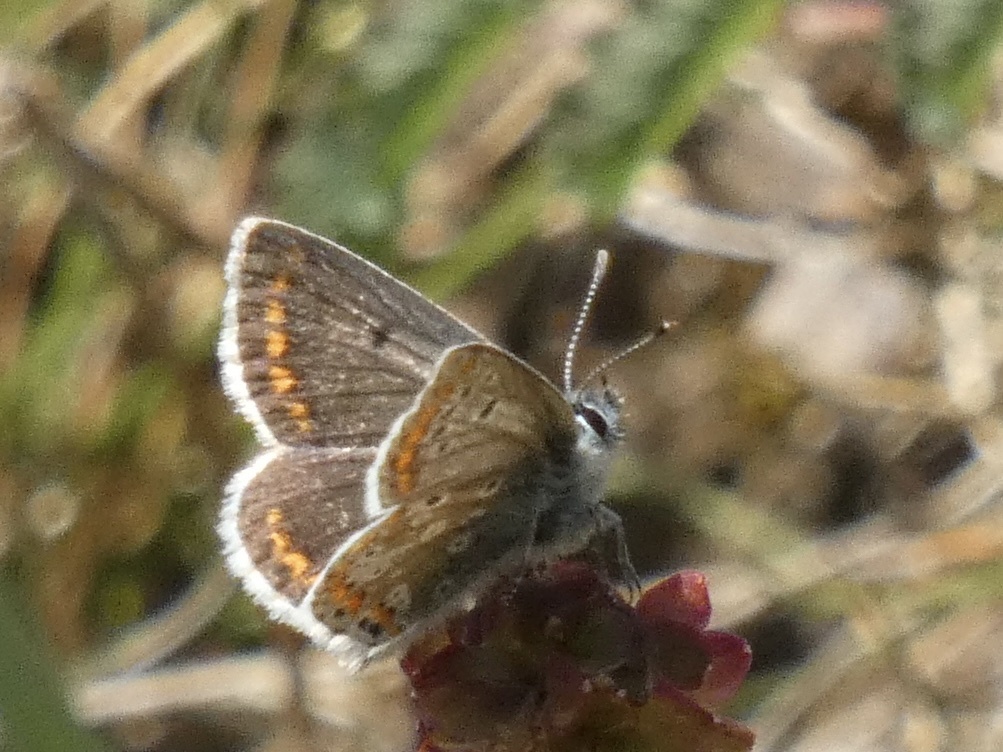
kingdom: Animalia
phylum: Arthropoda
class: Insecta
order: Lepidoptera
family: Lycaenidae
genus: Aricia
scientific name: Aricia agestis
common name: Brown argus
